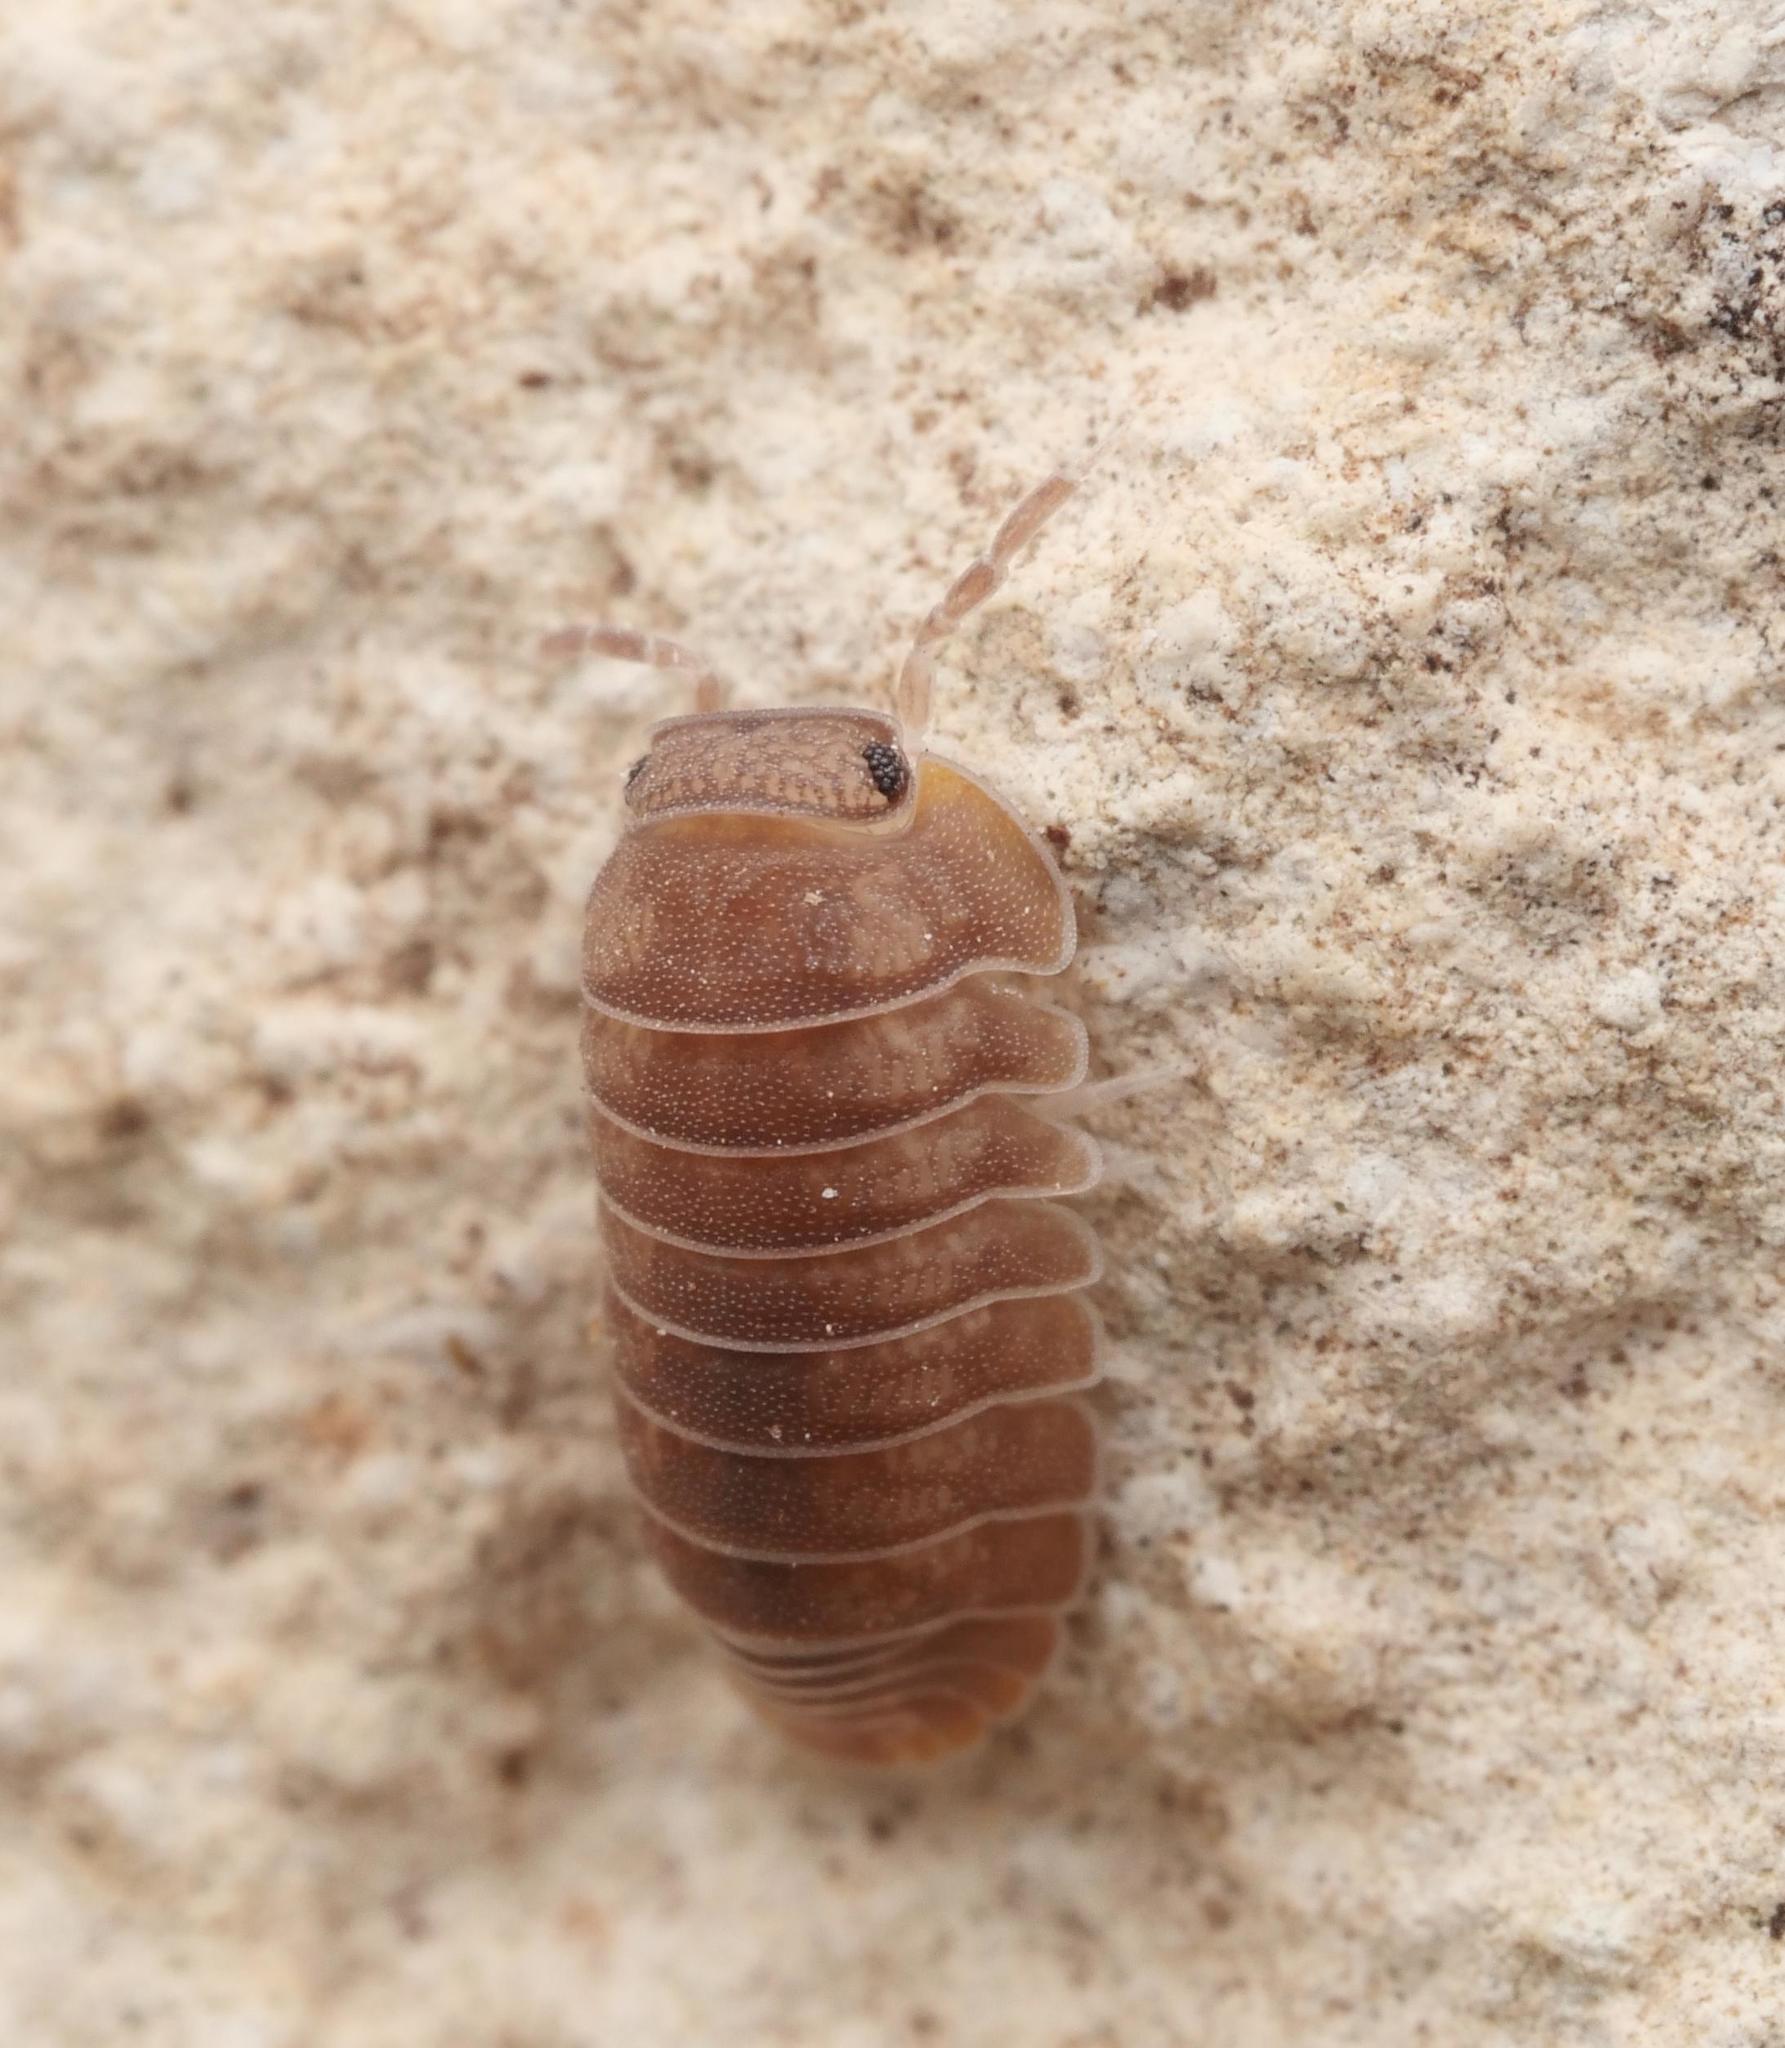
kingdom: Animalia
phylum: Arthropoda
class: Malacostraca
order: Isopoda
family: Armadillidae
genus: Cubaris
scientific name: Cubaris murina
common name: Pillbug
